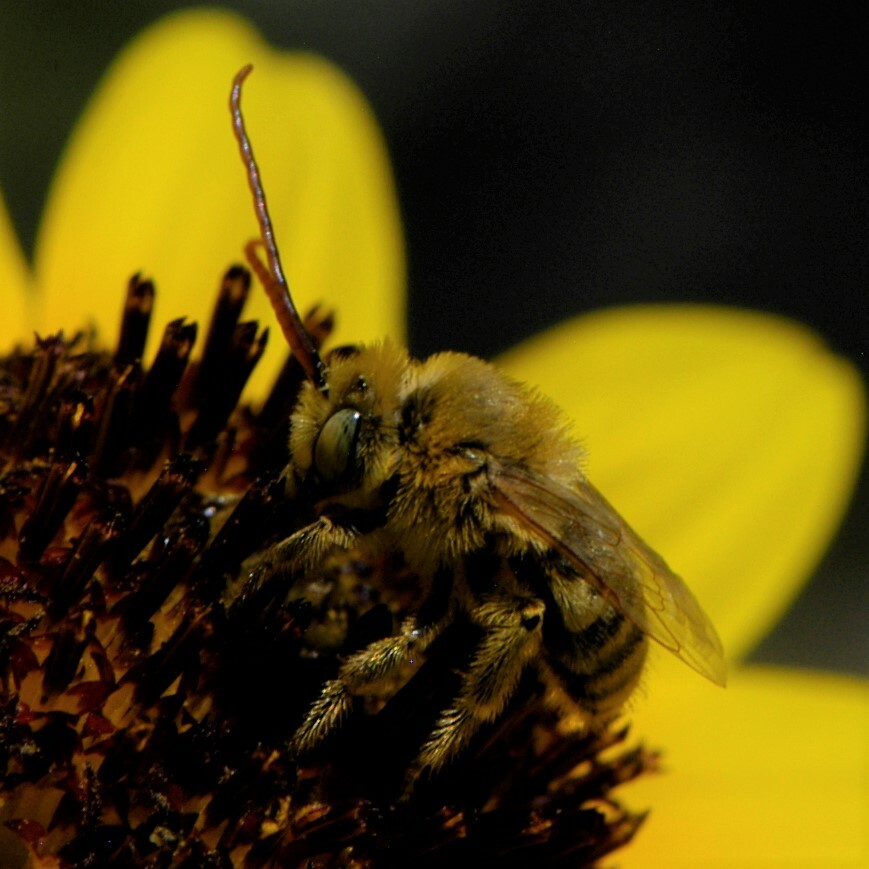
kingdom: Animalia
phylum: Arthropoda
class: Insecta
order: Hymenoptera
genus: Eumelissodes
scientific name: Eumelissodes
